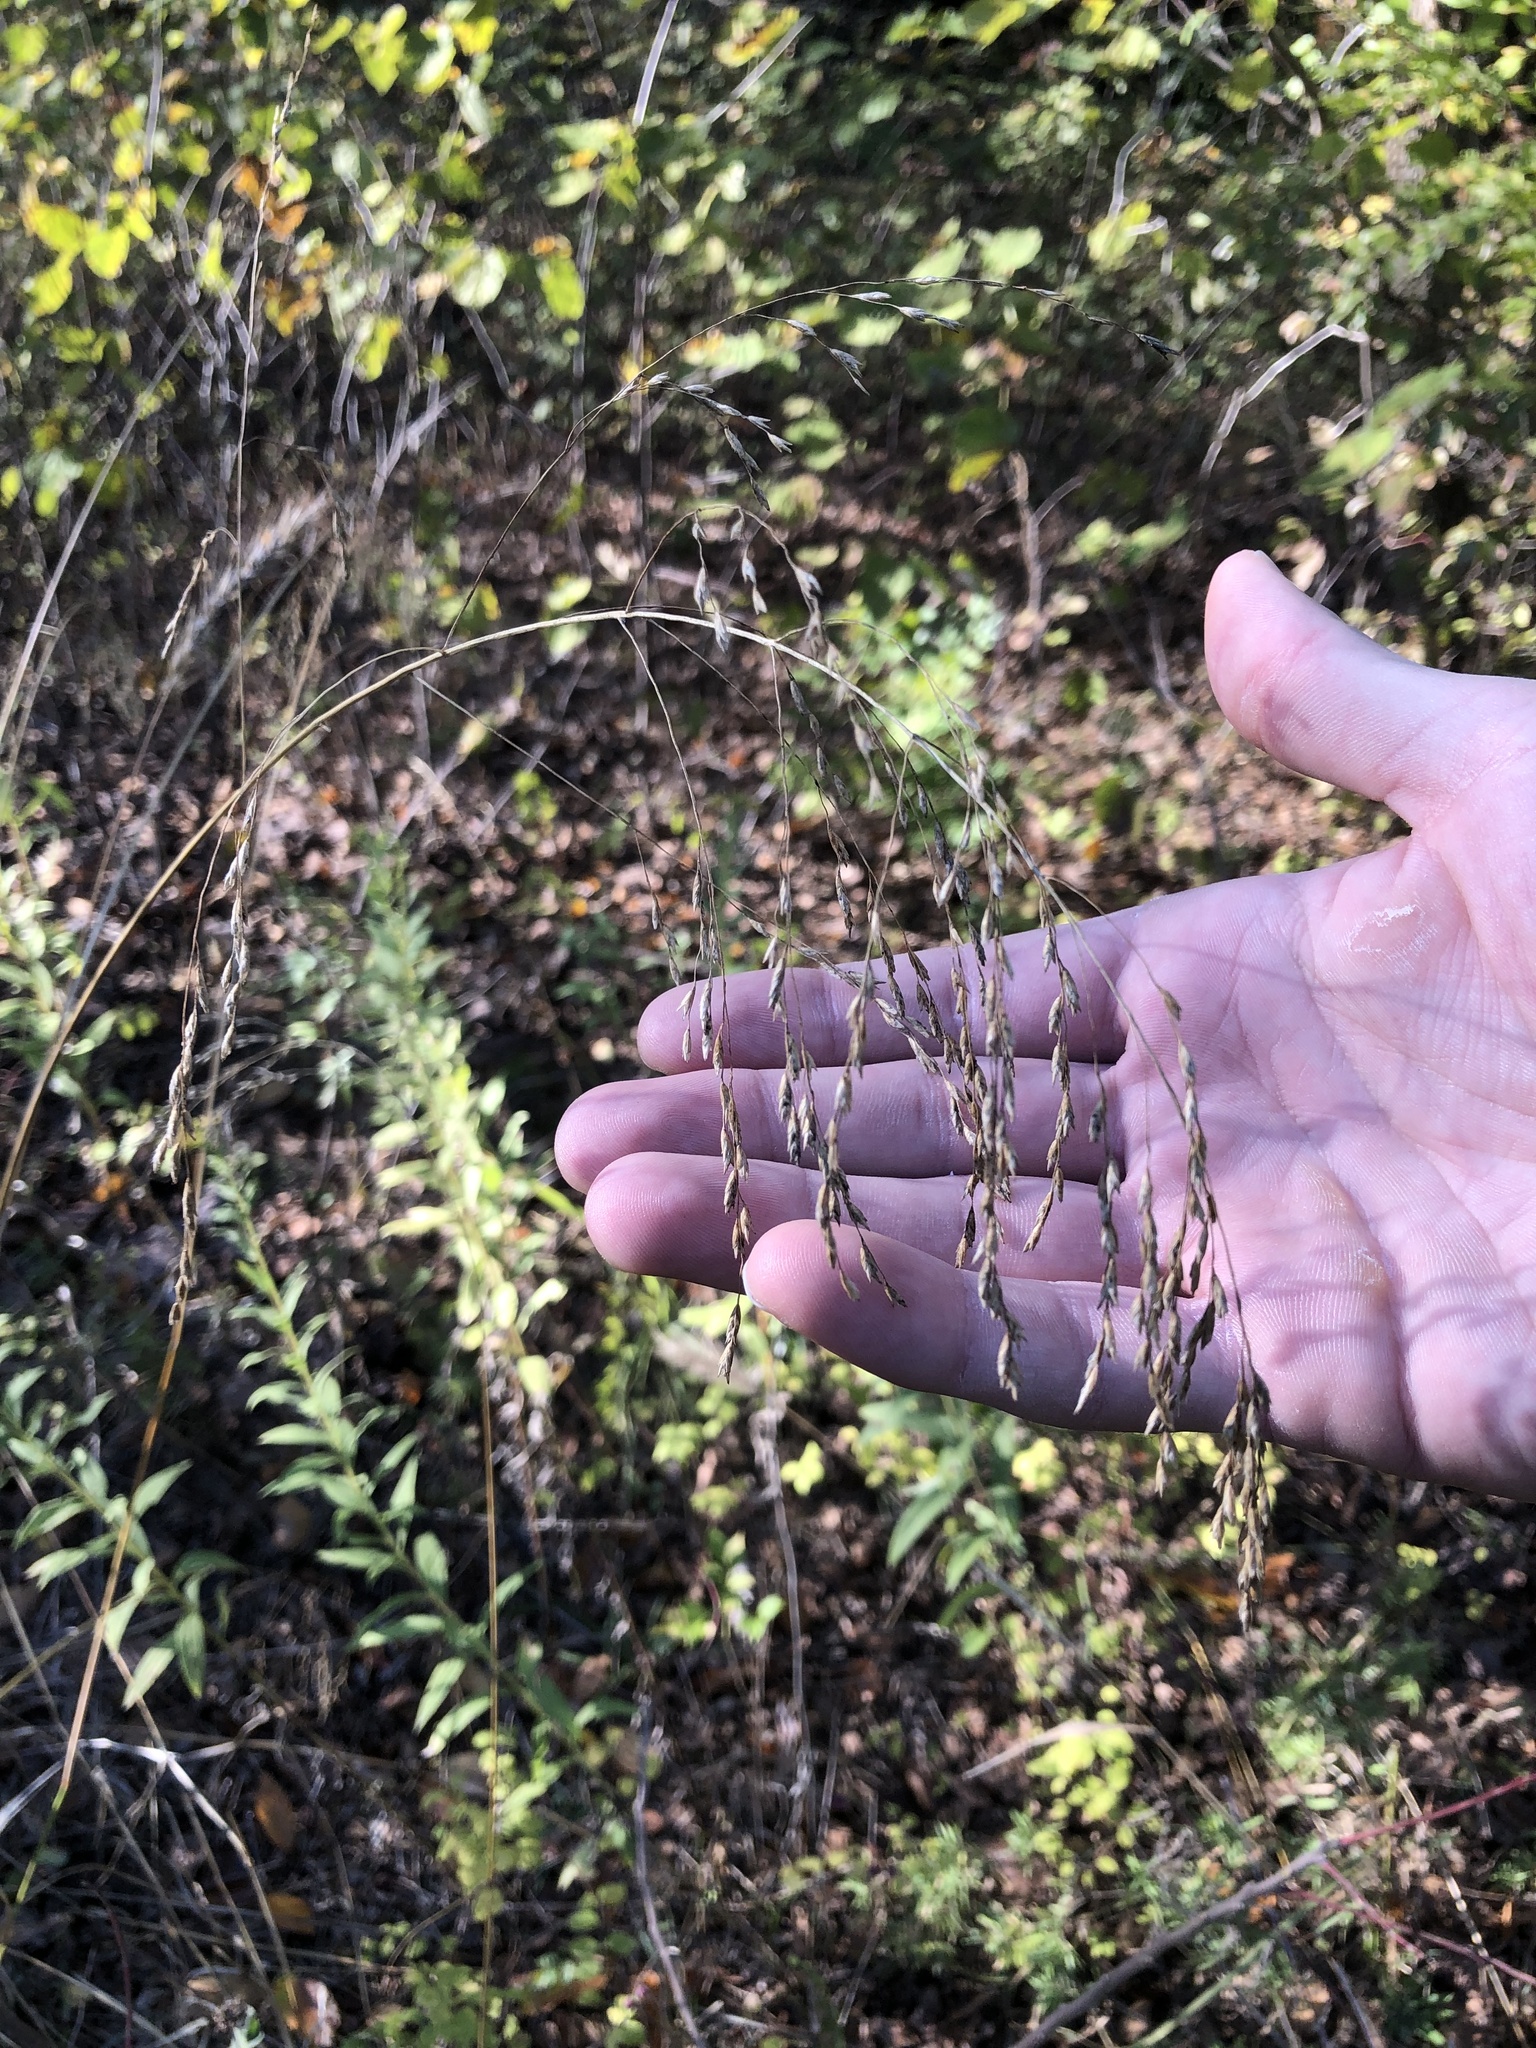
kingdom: Plantae
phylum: Tracheophyta
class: Liliopsida
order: Poales
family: Poaceae
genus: Tridens
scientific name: Tridens flavus
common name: Purpletop
